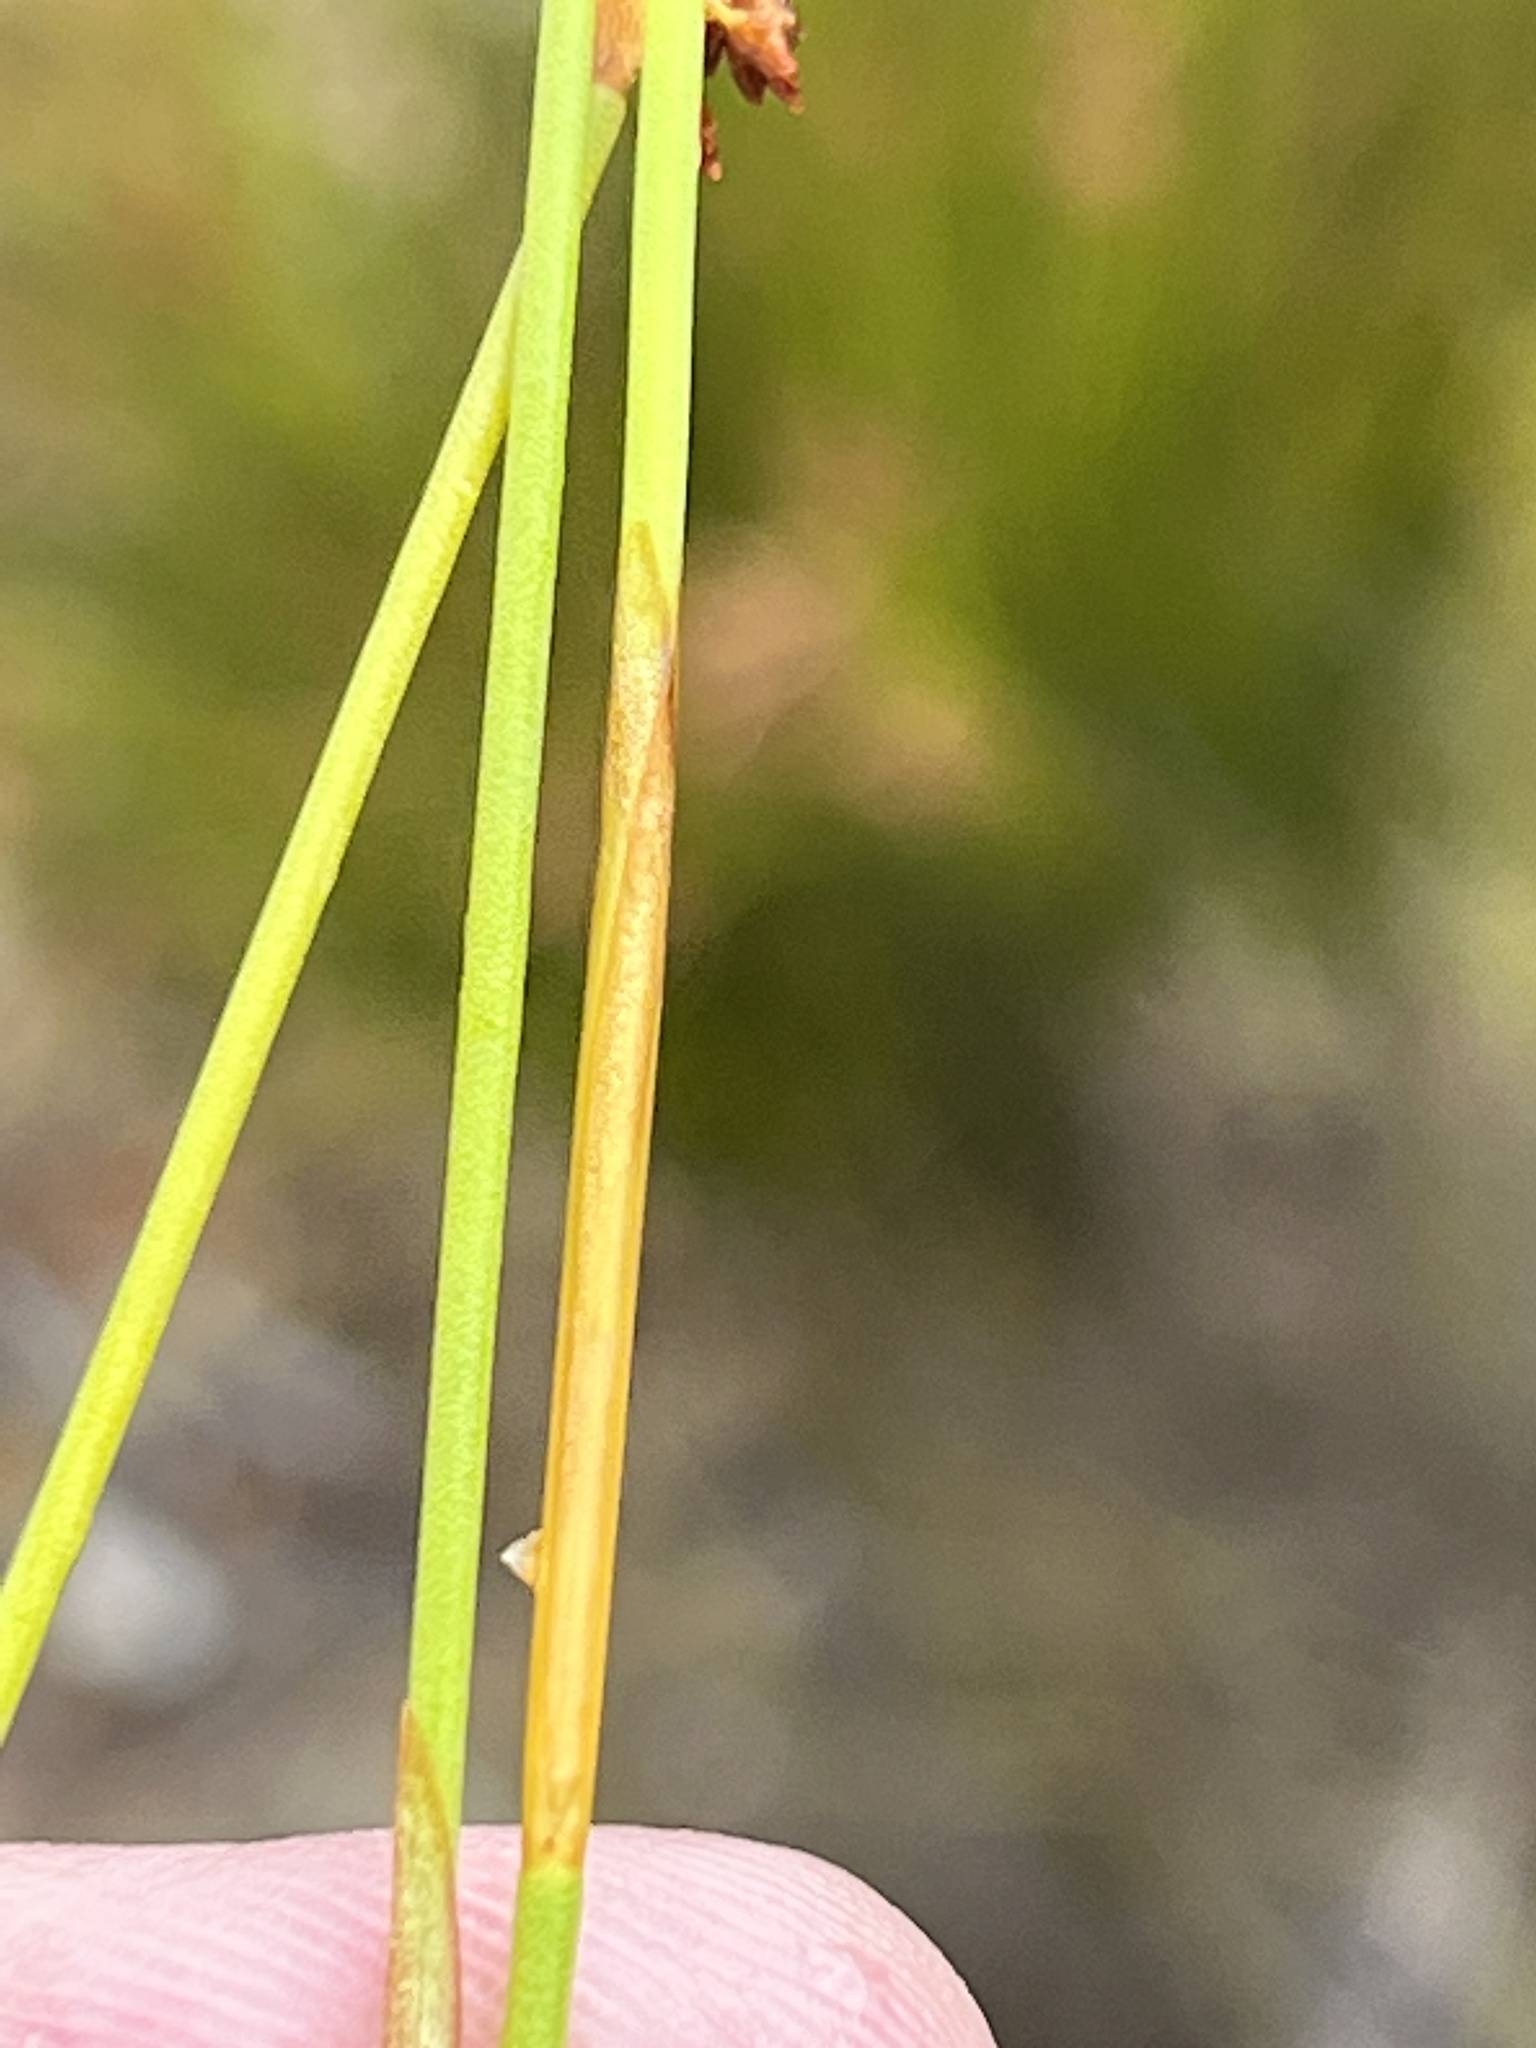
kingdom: Plantae
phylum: Tracheophyta
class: Liliopsida
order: Poales
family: Restionaceae
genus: Elegia
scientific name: Elegia filacea
